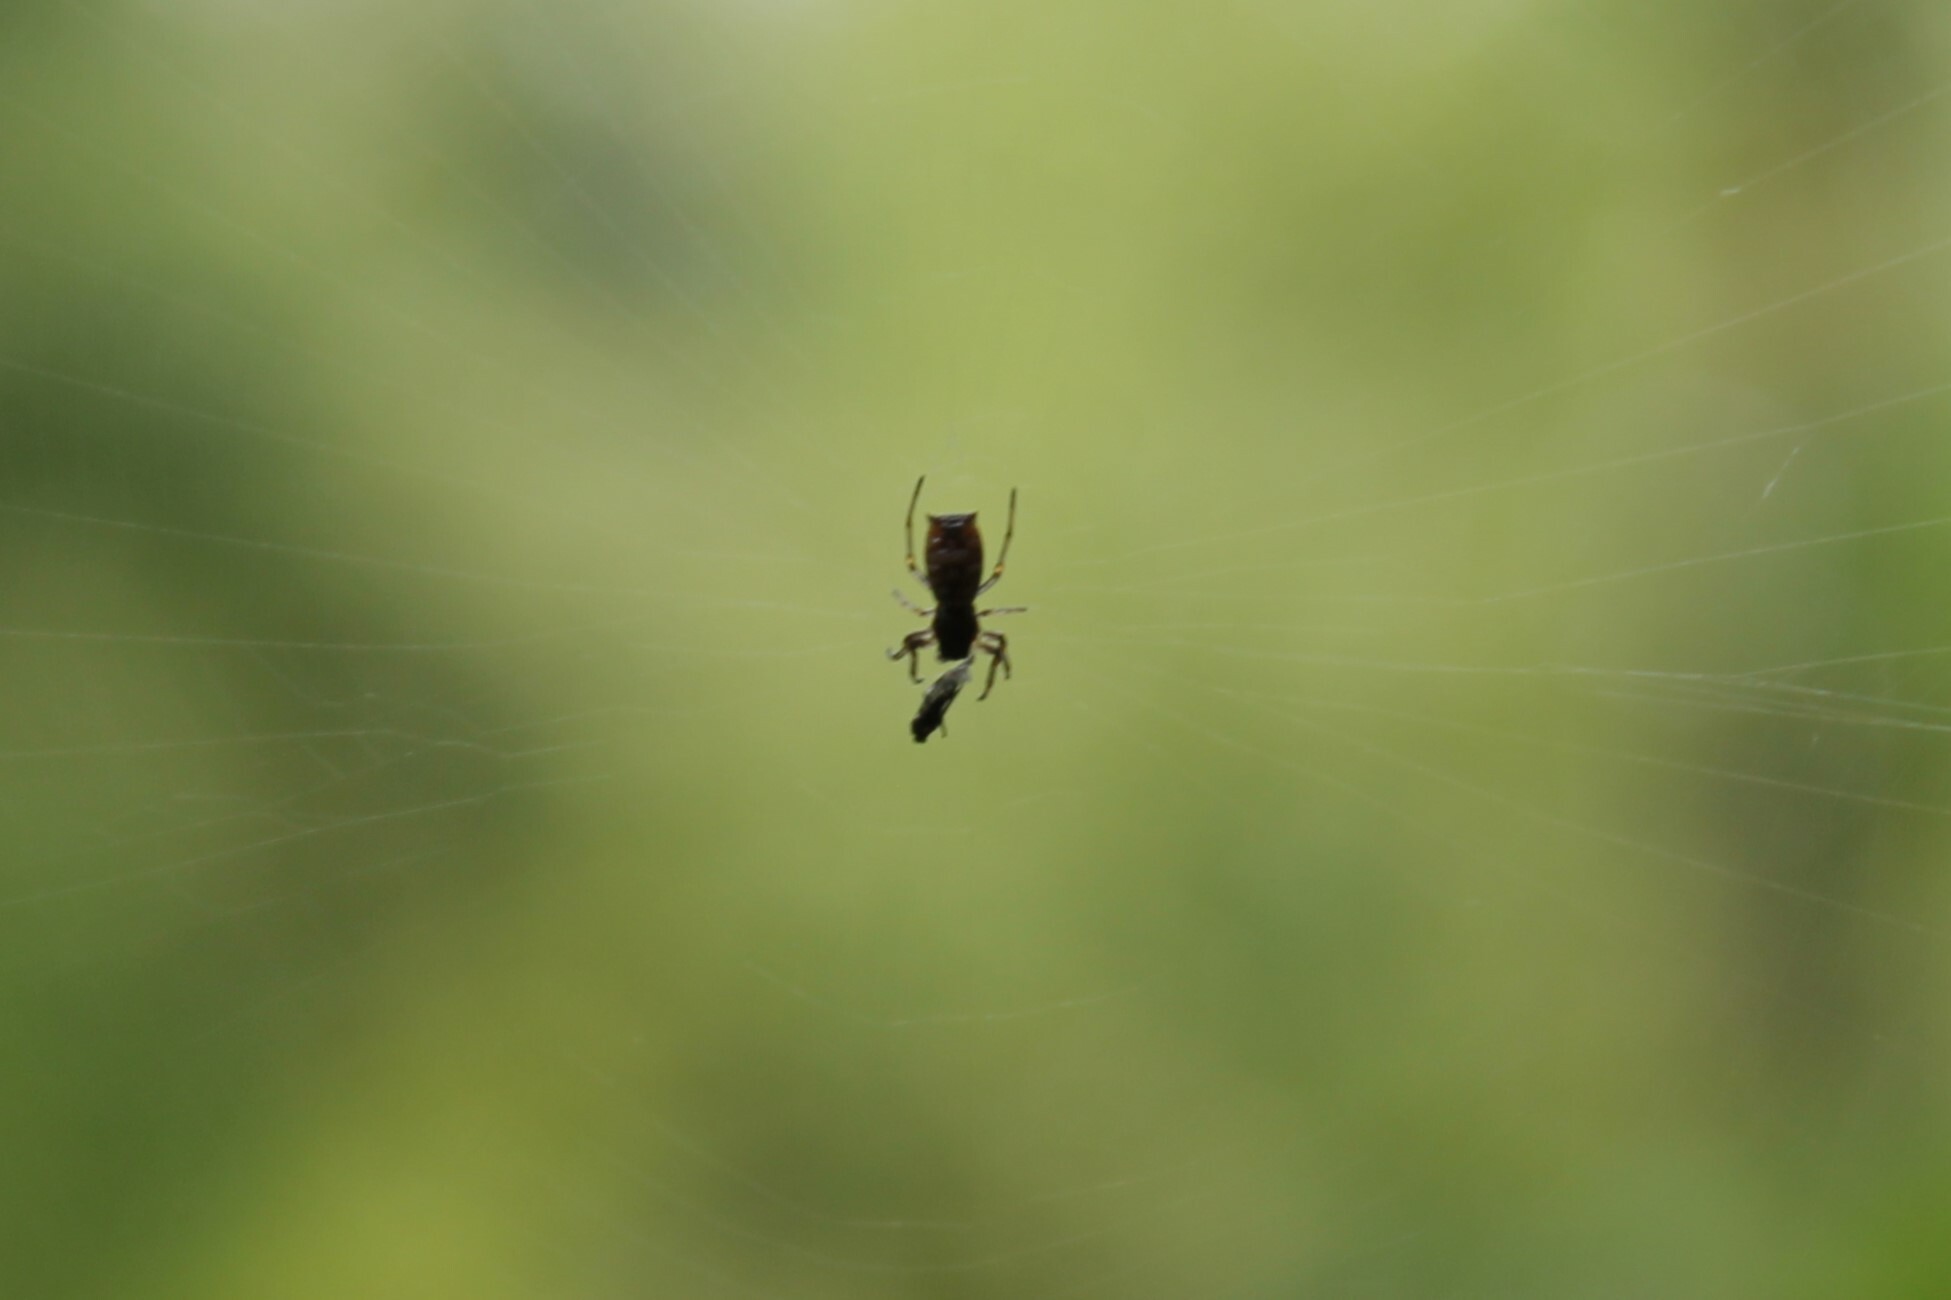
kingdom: Animalia
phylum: Arthropoda
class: Arachnida
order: Araneae
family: Araneidae
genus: Micrathena
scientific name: Micrathena mitrata
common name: Orb weavers
